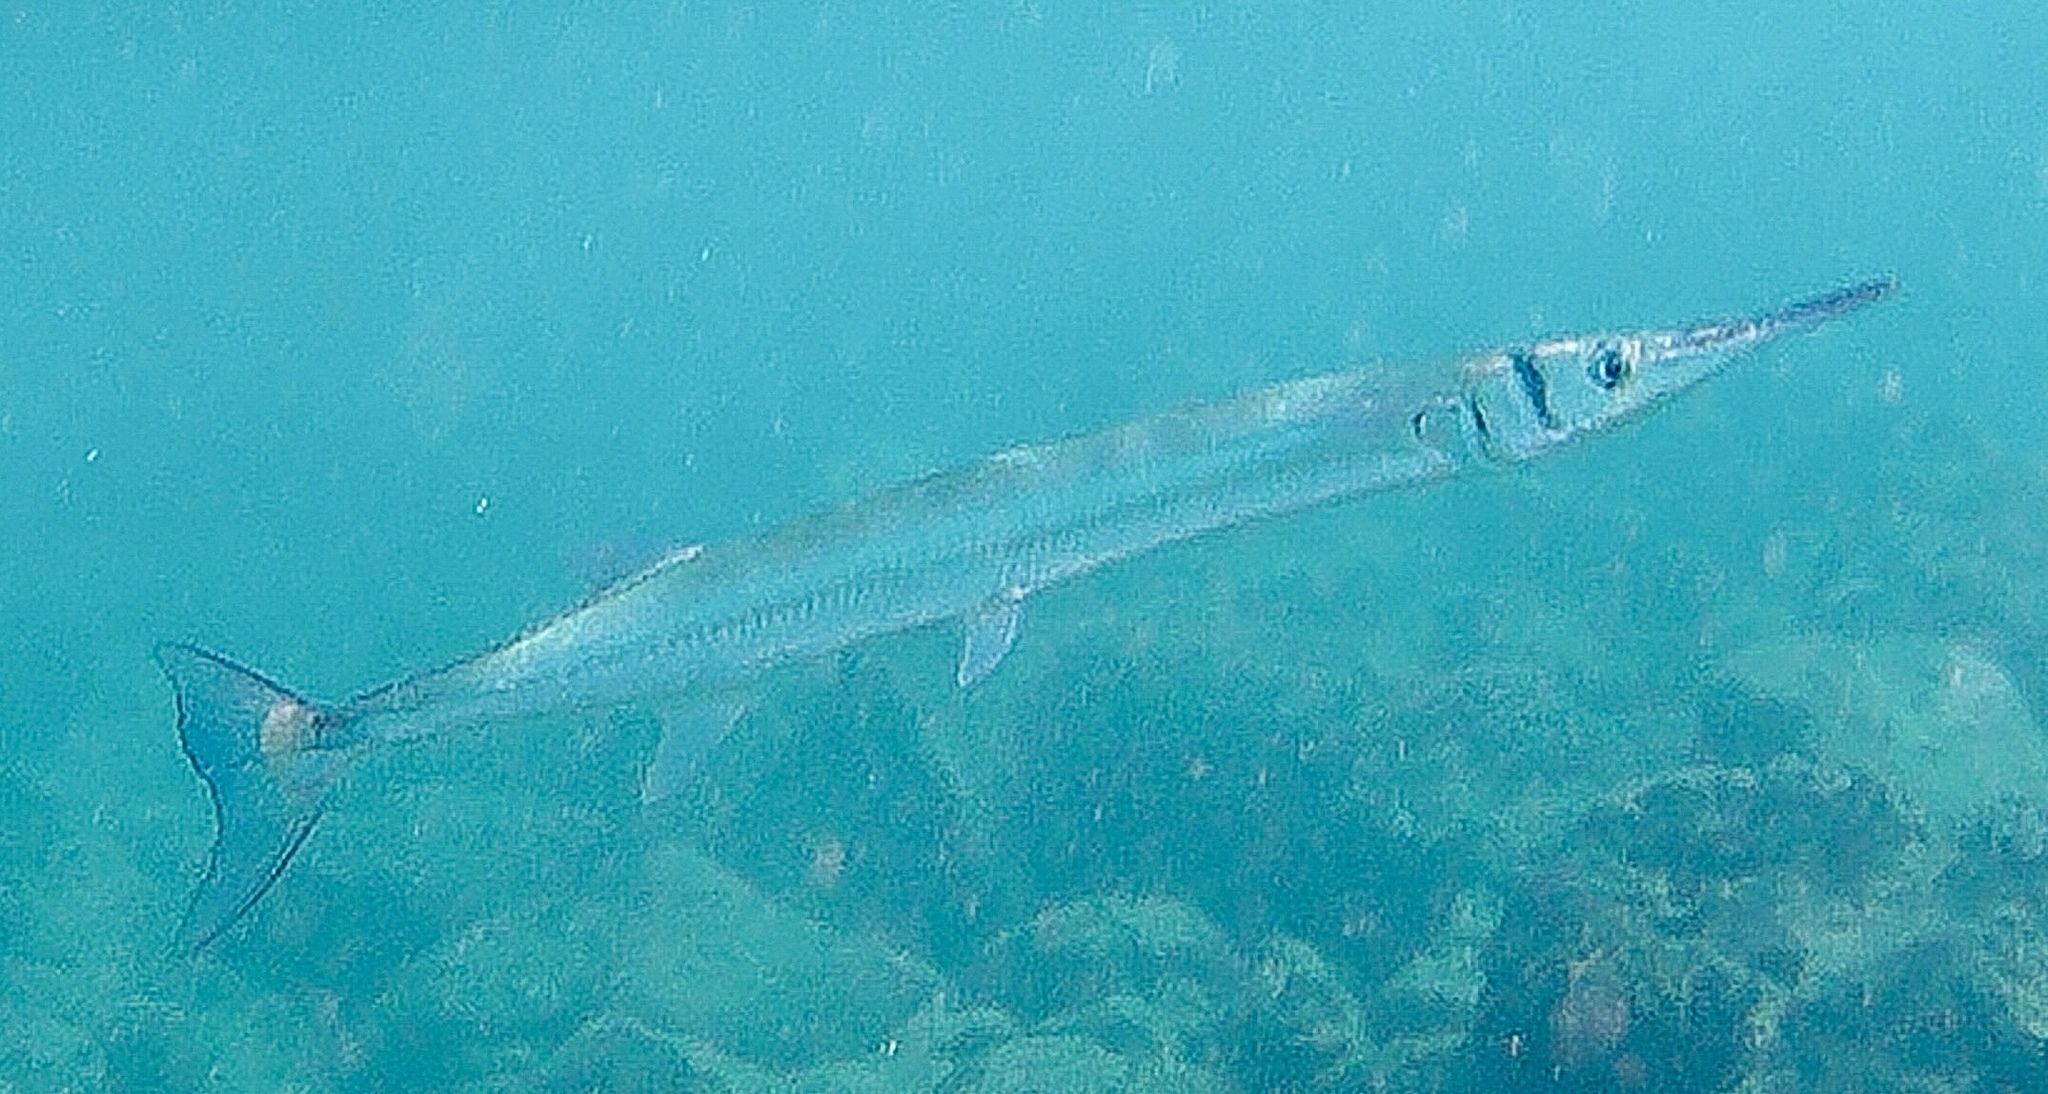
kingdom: Animalia
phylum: Chordata
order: Beloniformes
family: Belonidae
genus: Tylosurus
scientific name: Tylosurus crocodilus
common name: Houndfish
